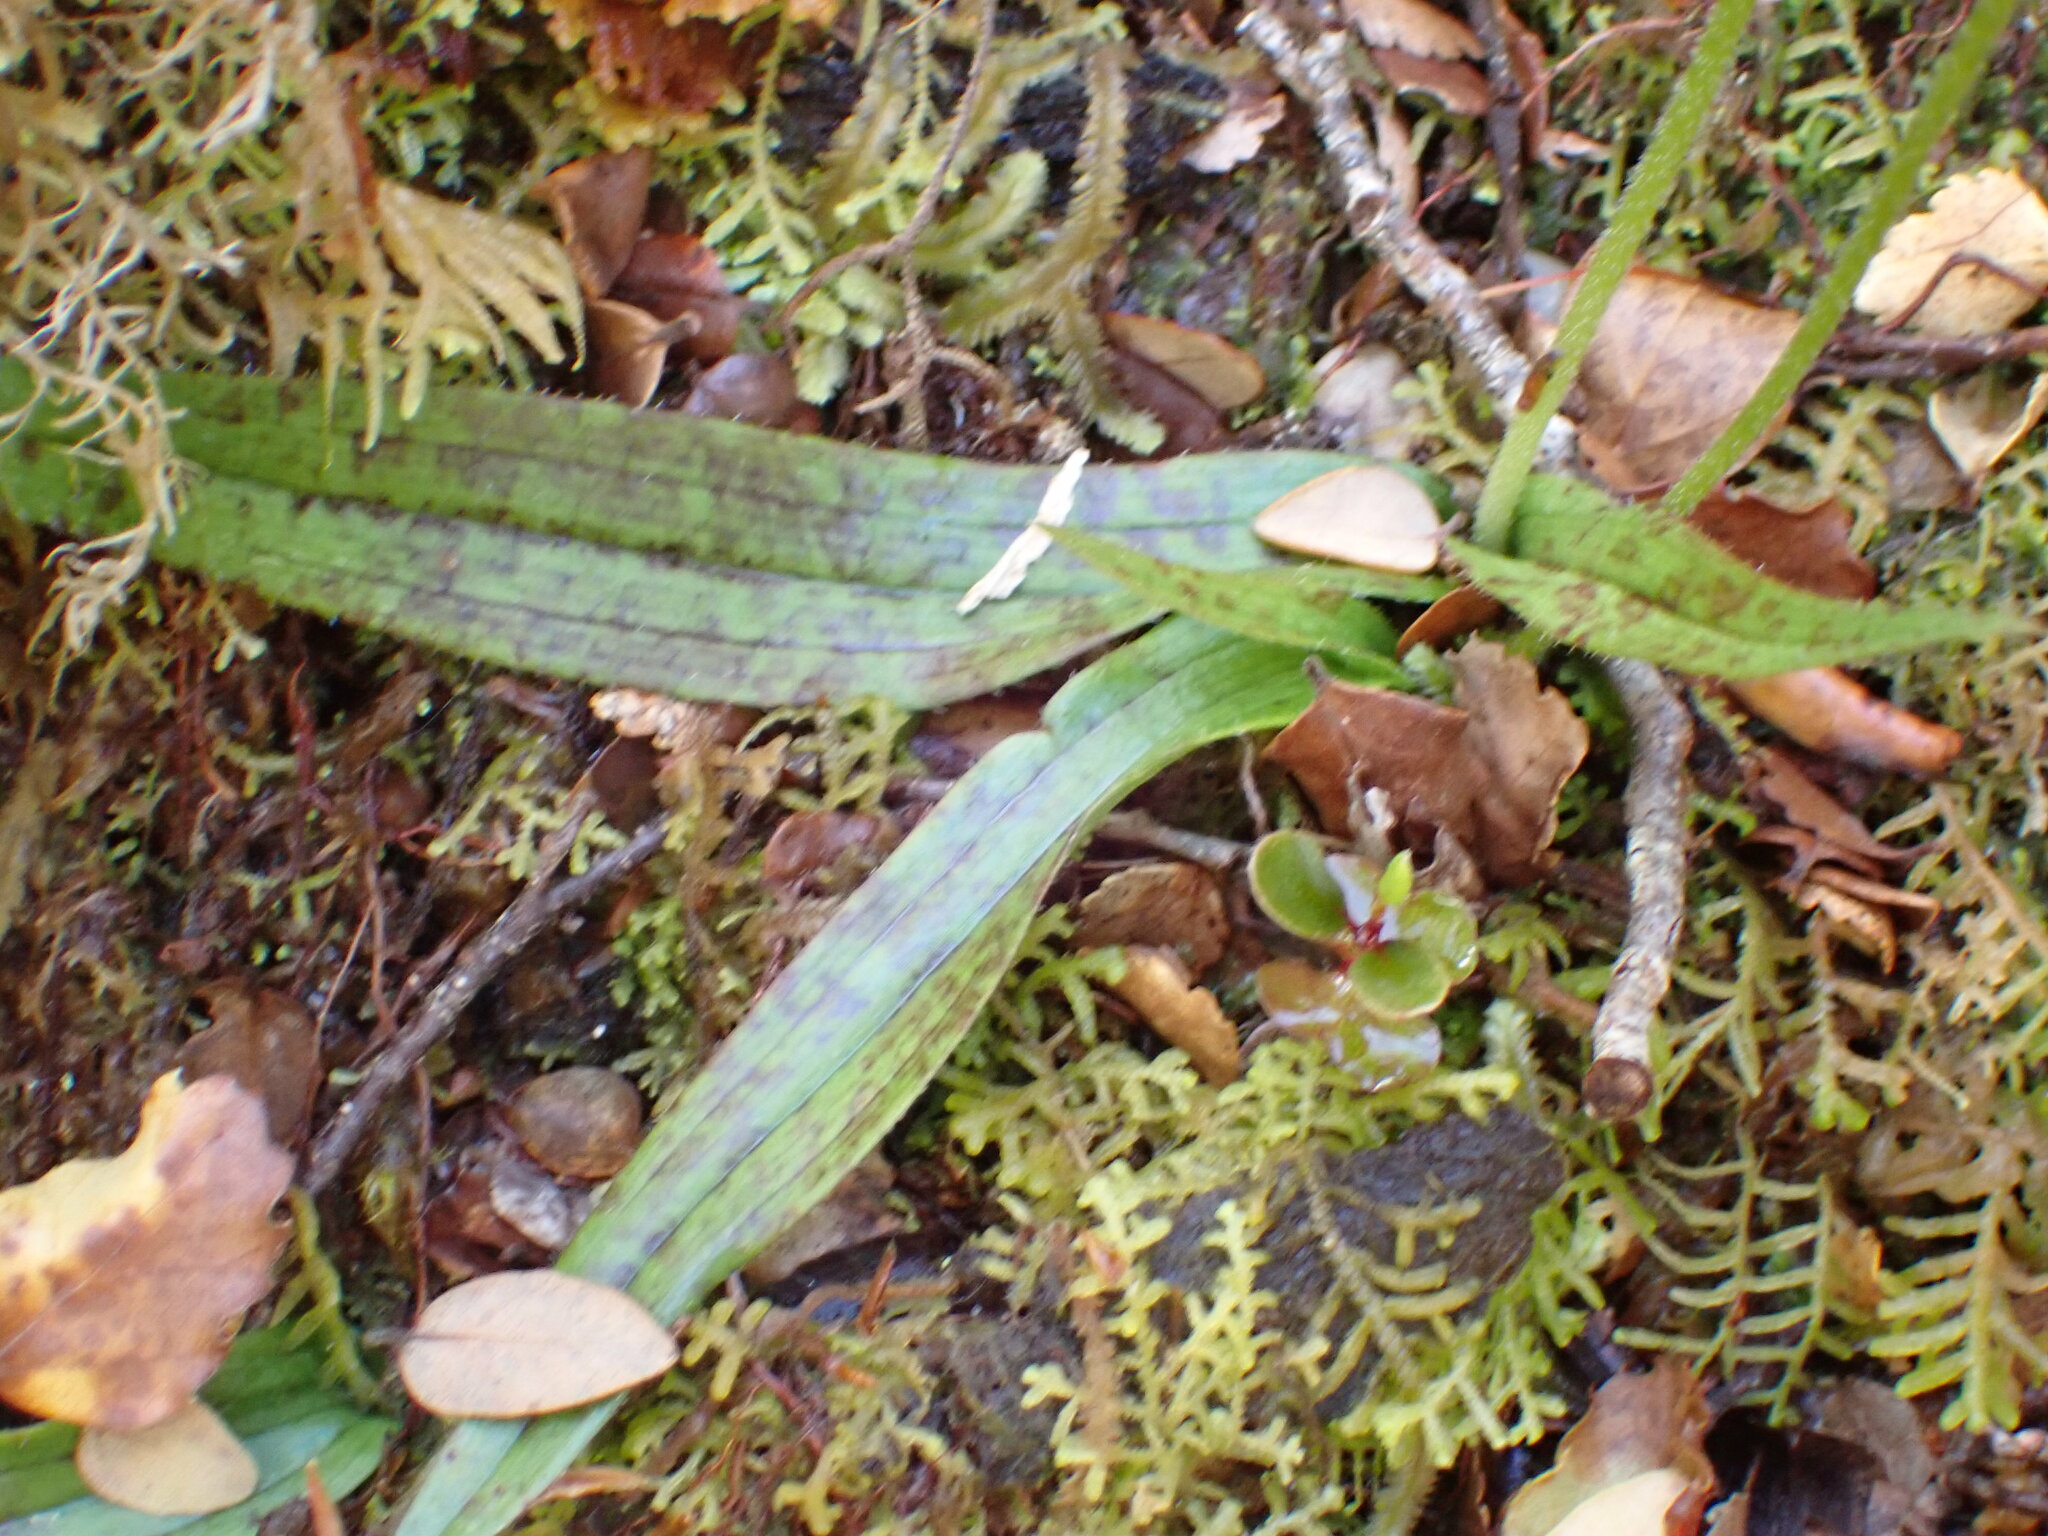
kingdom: Plantae
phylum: Tracheophyta
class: Liliopsida
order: Asparagales
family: Orchidaceae
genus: Aporostylis
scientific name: Aporostylis bifolia
